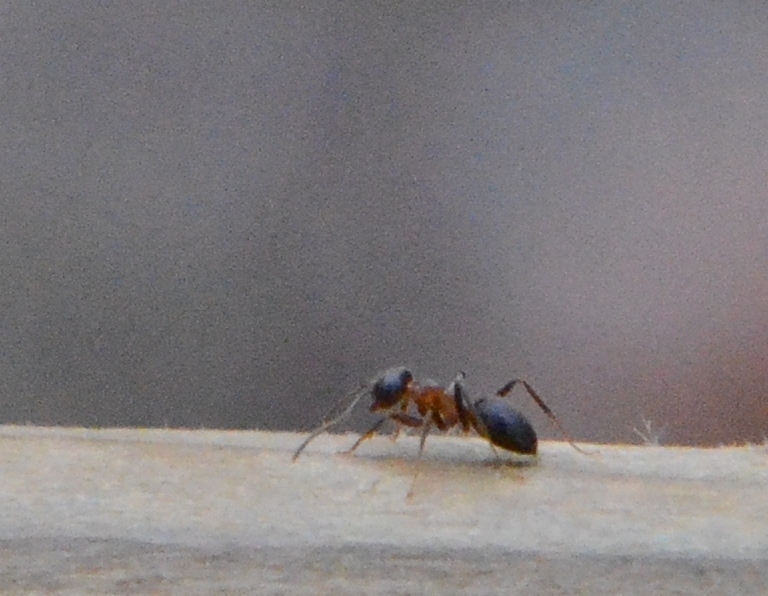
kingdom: Animalia
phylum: Arthropoda
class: Insecta
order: Hymenoptera
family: Formicidae
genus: Lasius
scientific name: Lasius emarginatus
